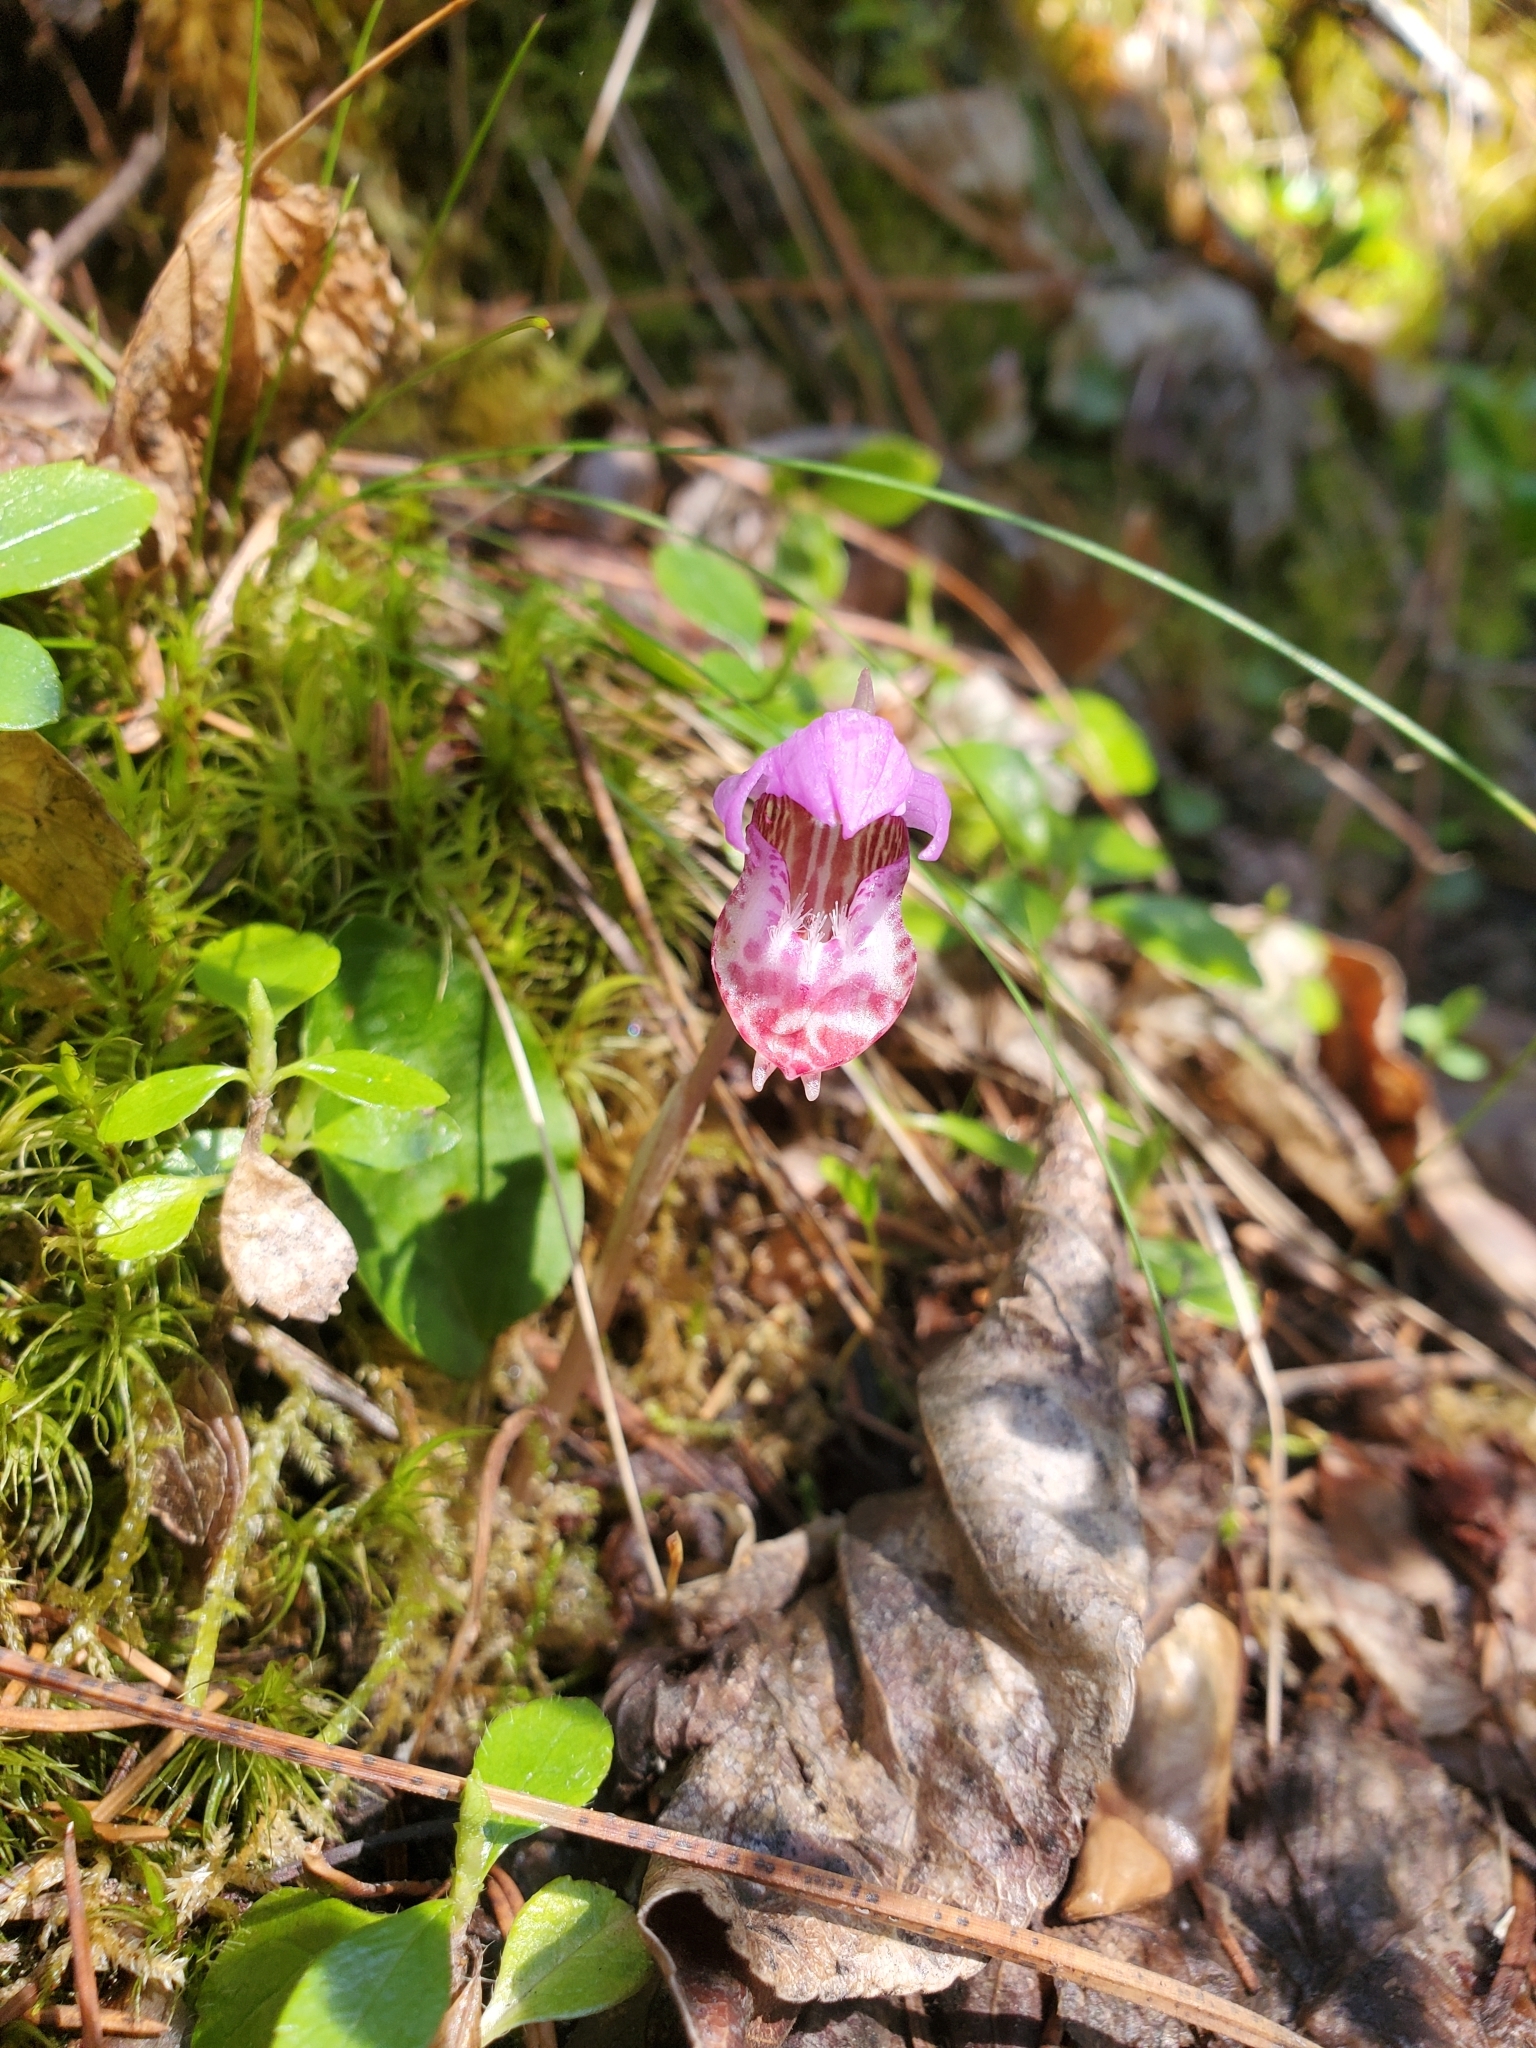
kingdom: Plantae
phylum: Tracheophyta
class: Liliopsida
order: Asparagales
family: Orchidaceae
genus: Calypso
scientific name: Calypso bulbosa
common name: Calypso
